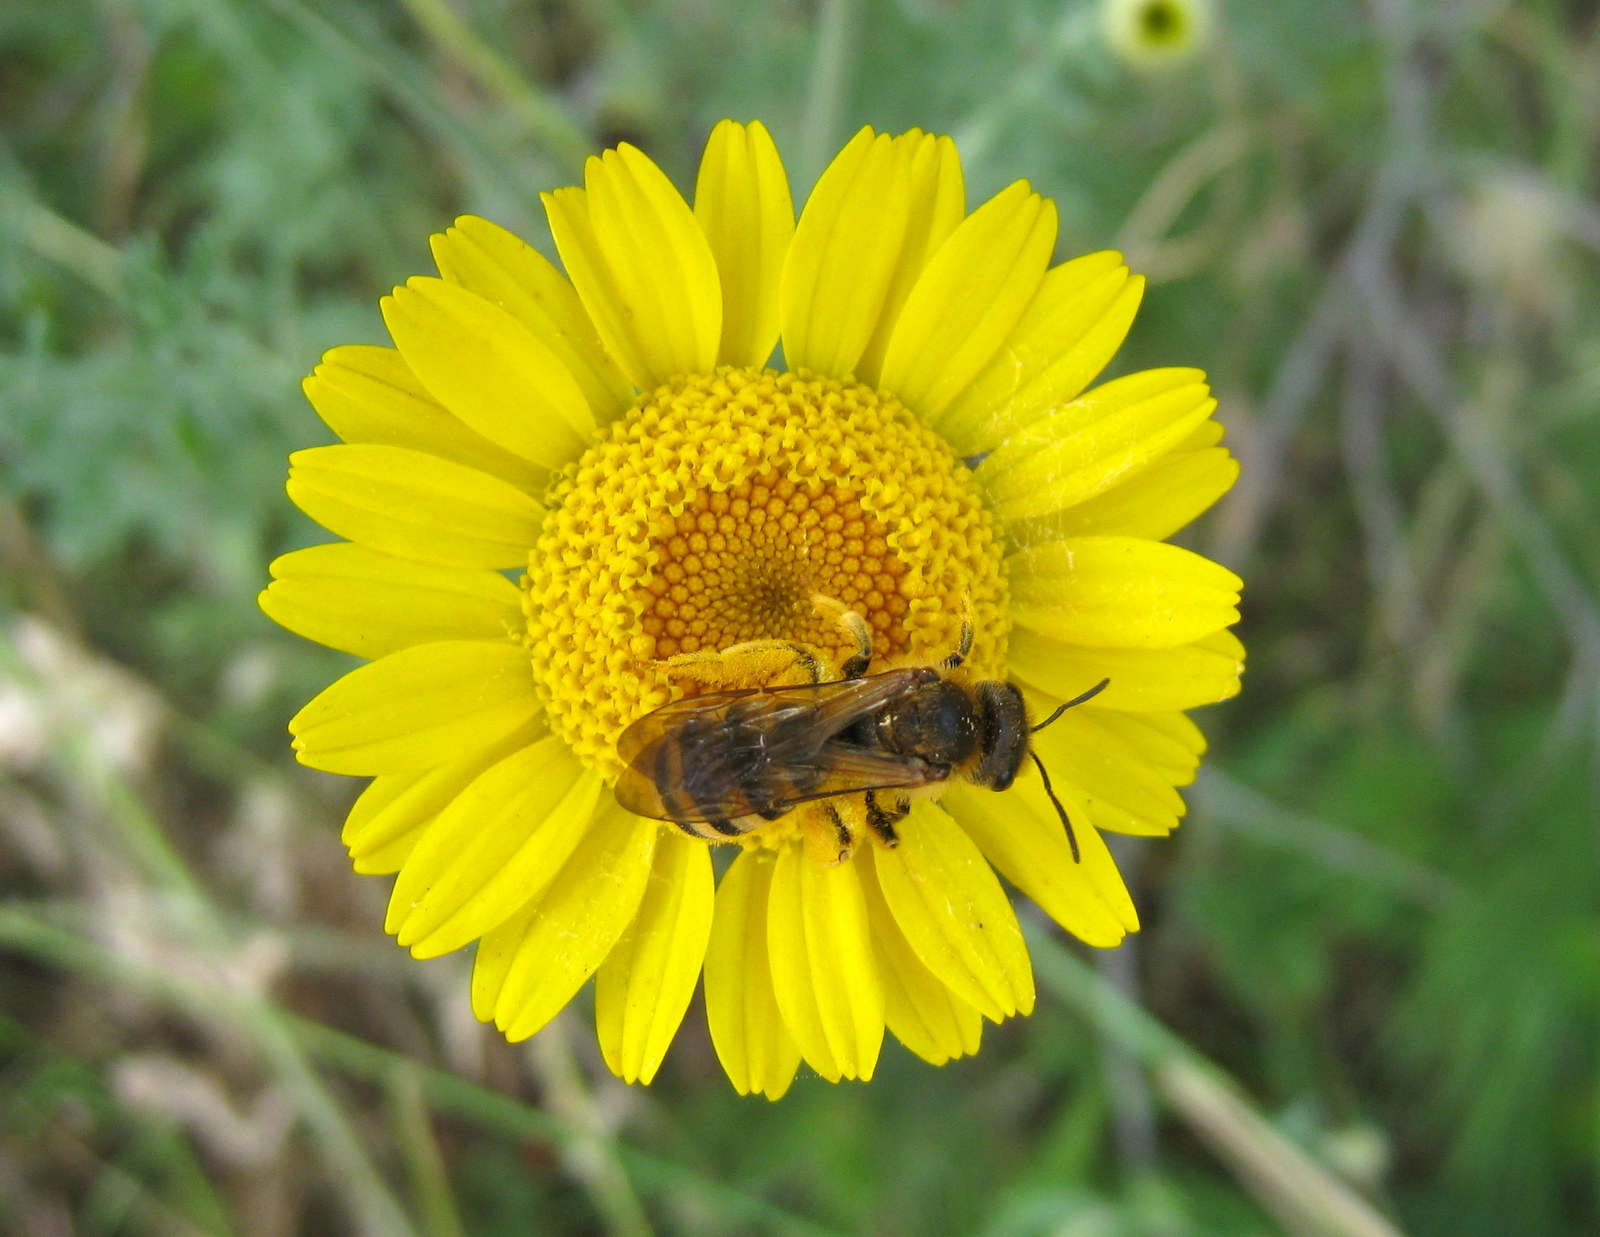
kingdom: Animalia
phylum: Arthropoda
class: Insecta
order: Hymenoptera
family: Halictidae
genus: Halictus
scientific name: Halictus scabiosae
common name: Great banded furrow bee
